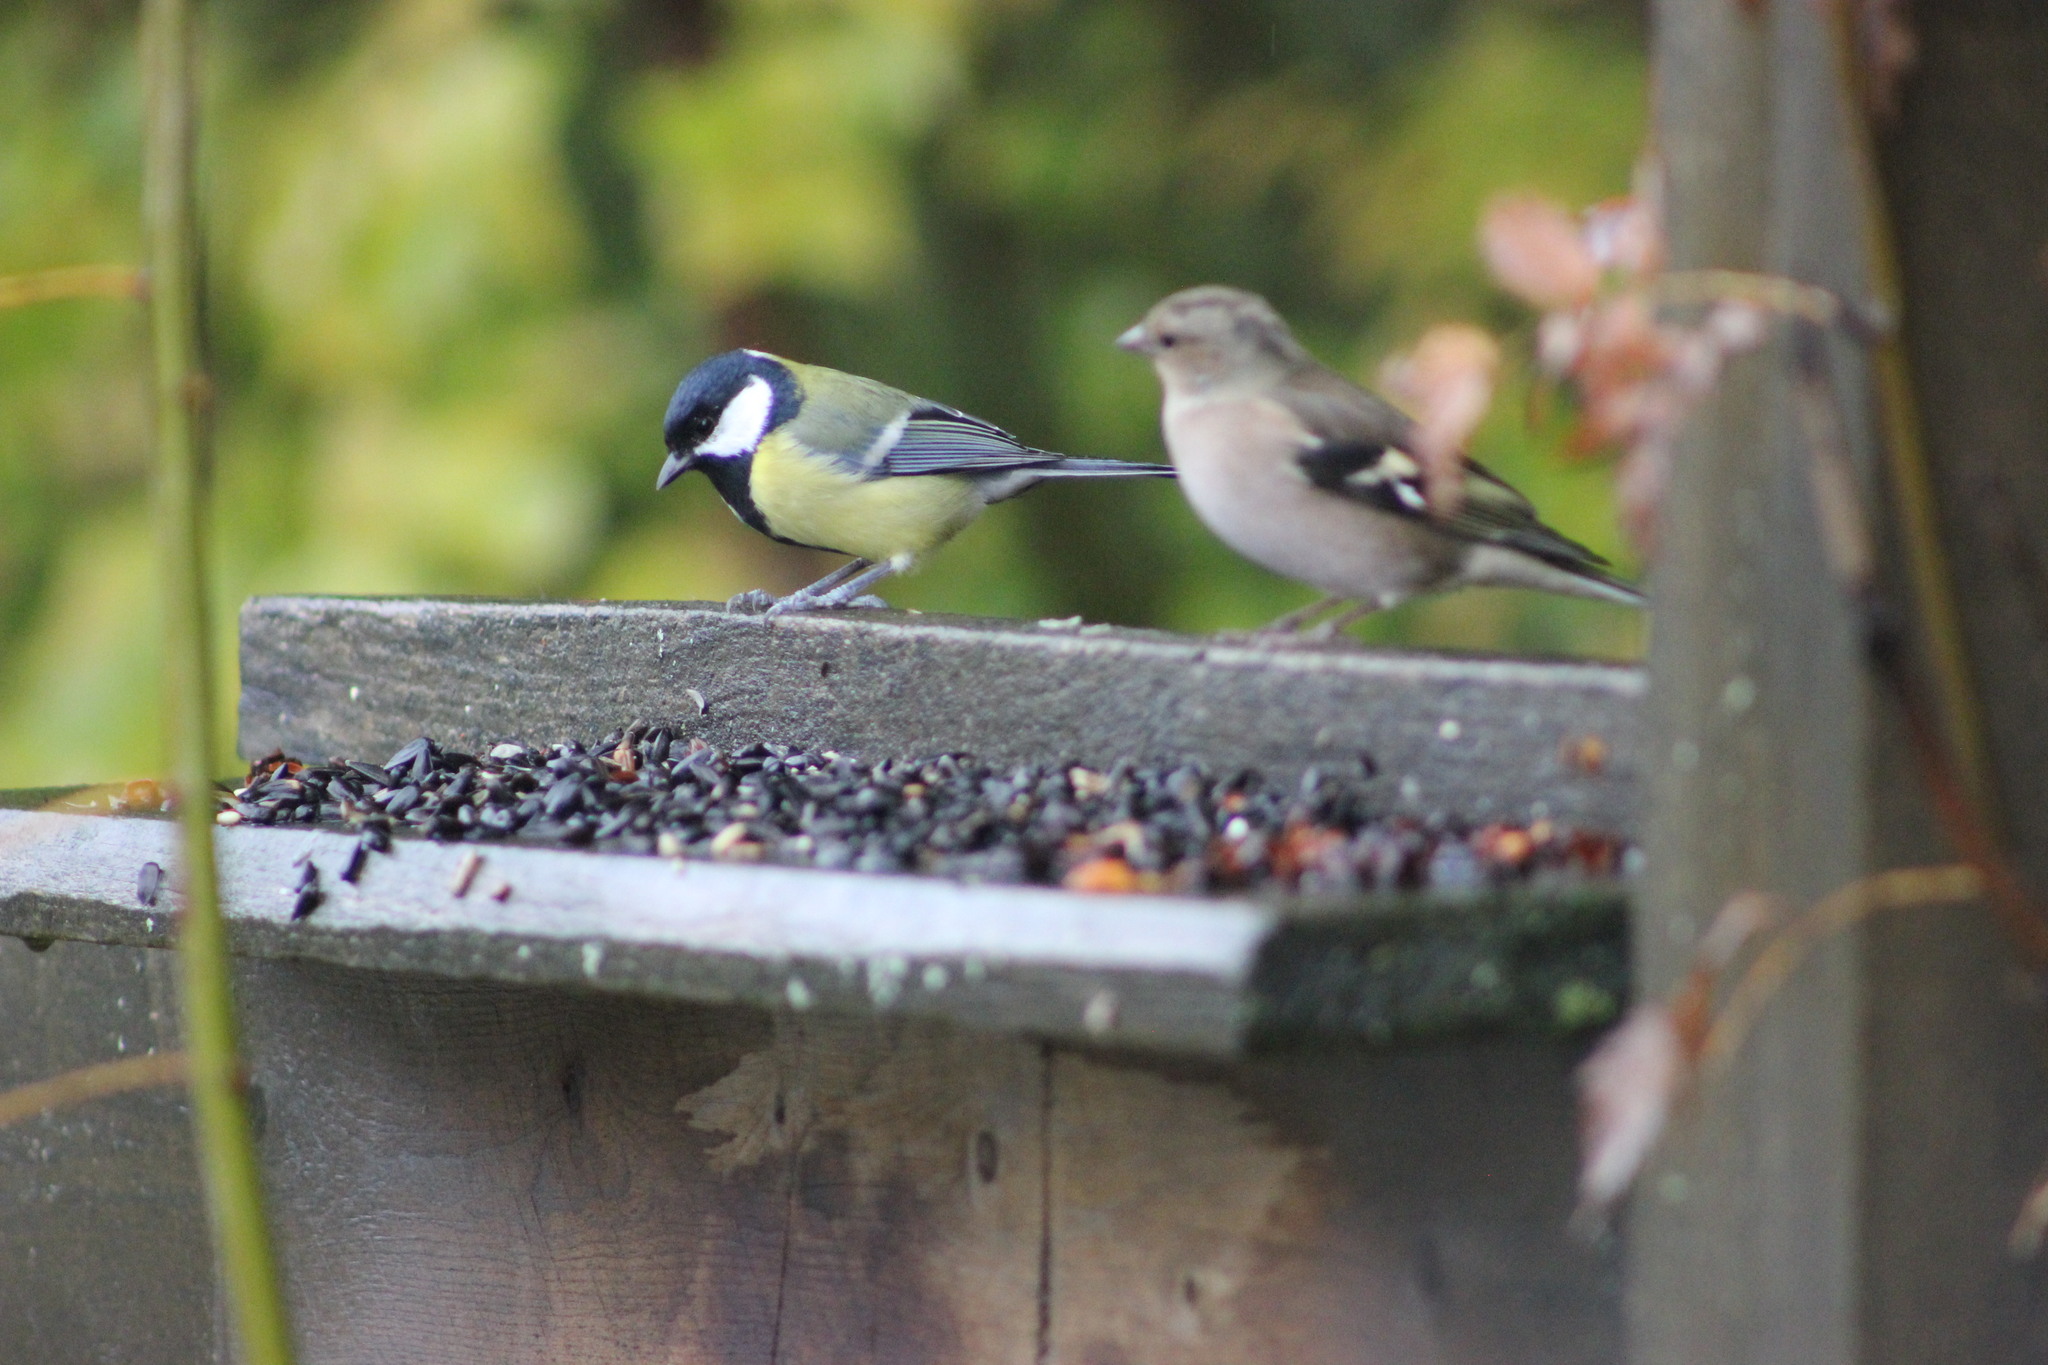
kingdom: Animalia
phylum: Chordata
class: Aves
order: Passeriformes
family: Fringillidae
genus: Fringilla
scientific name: Fringilla coelebs
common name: Common chaffinch
